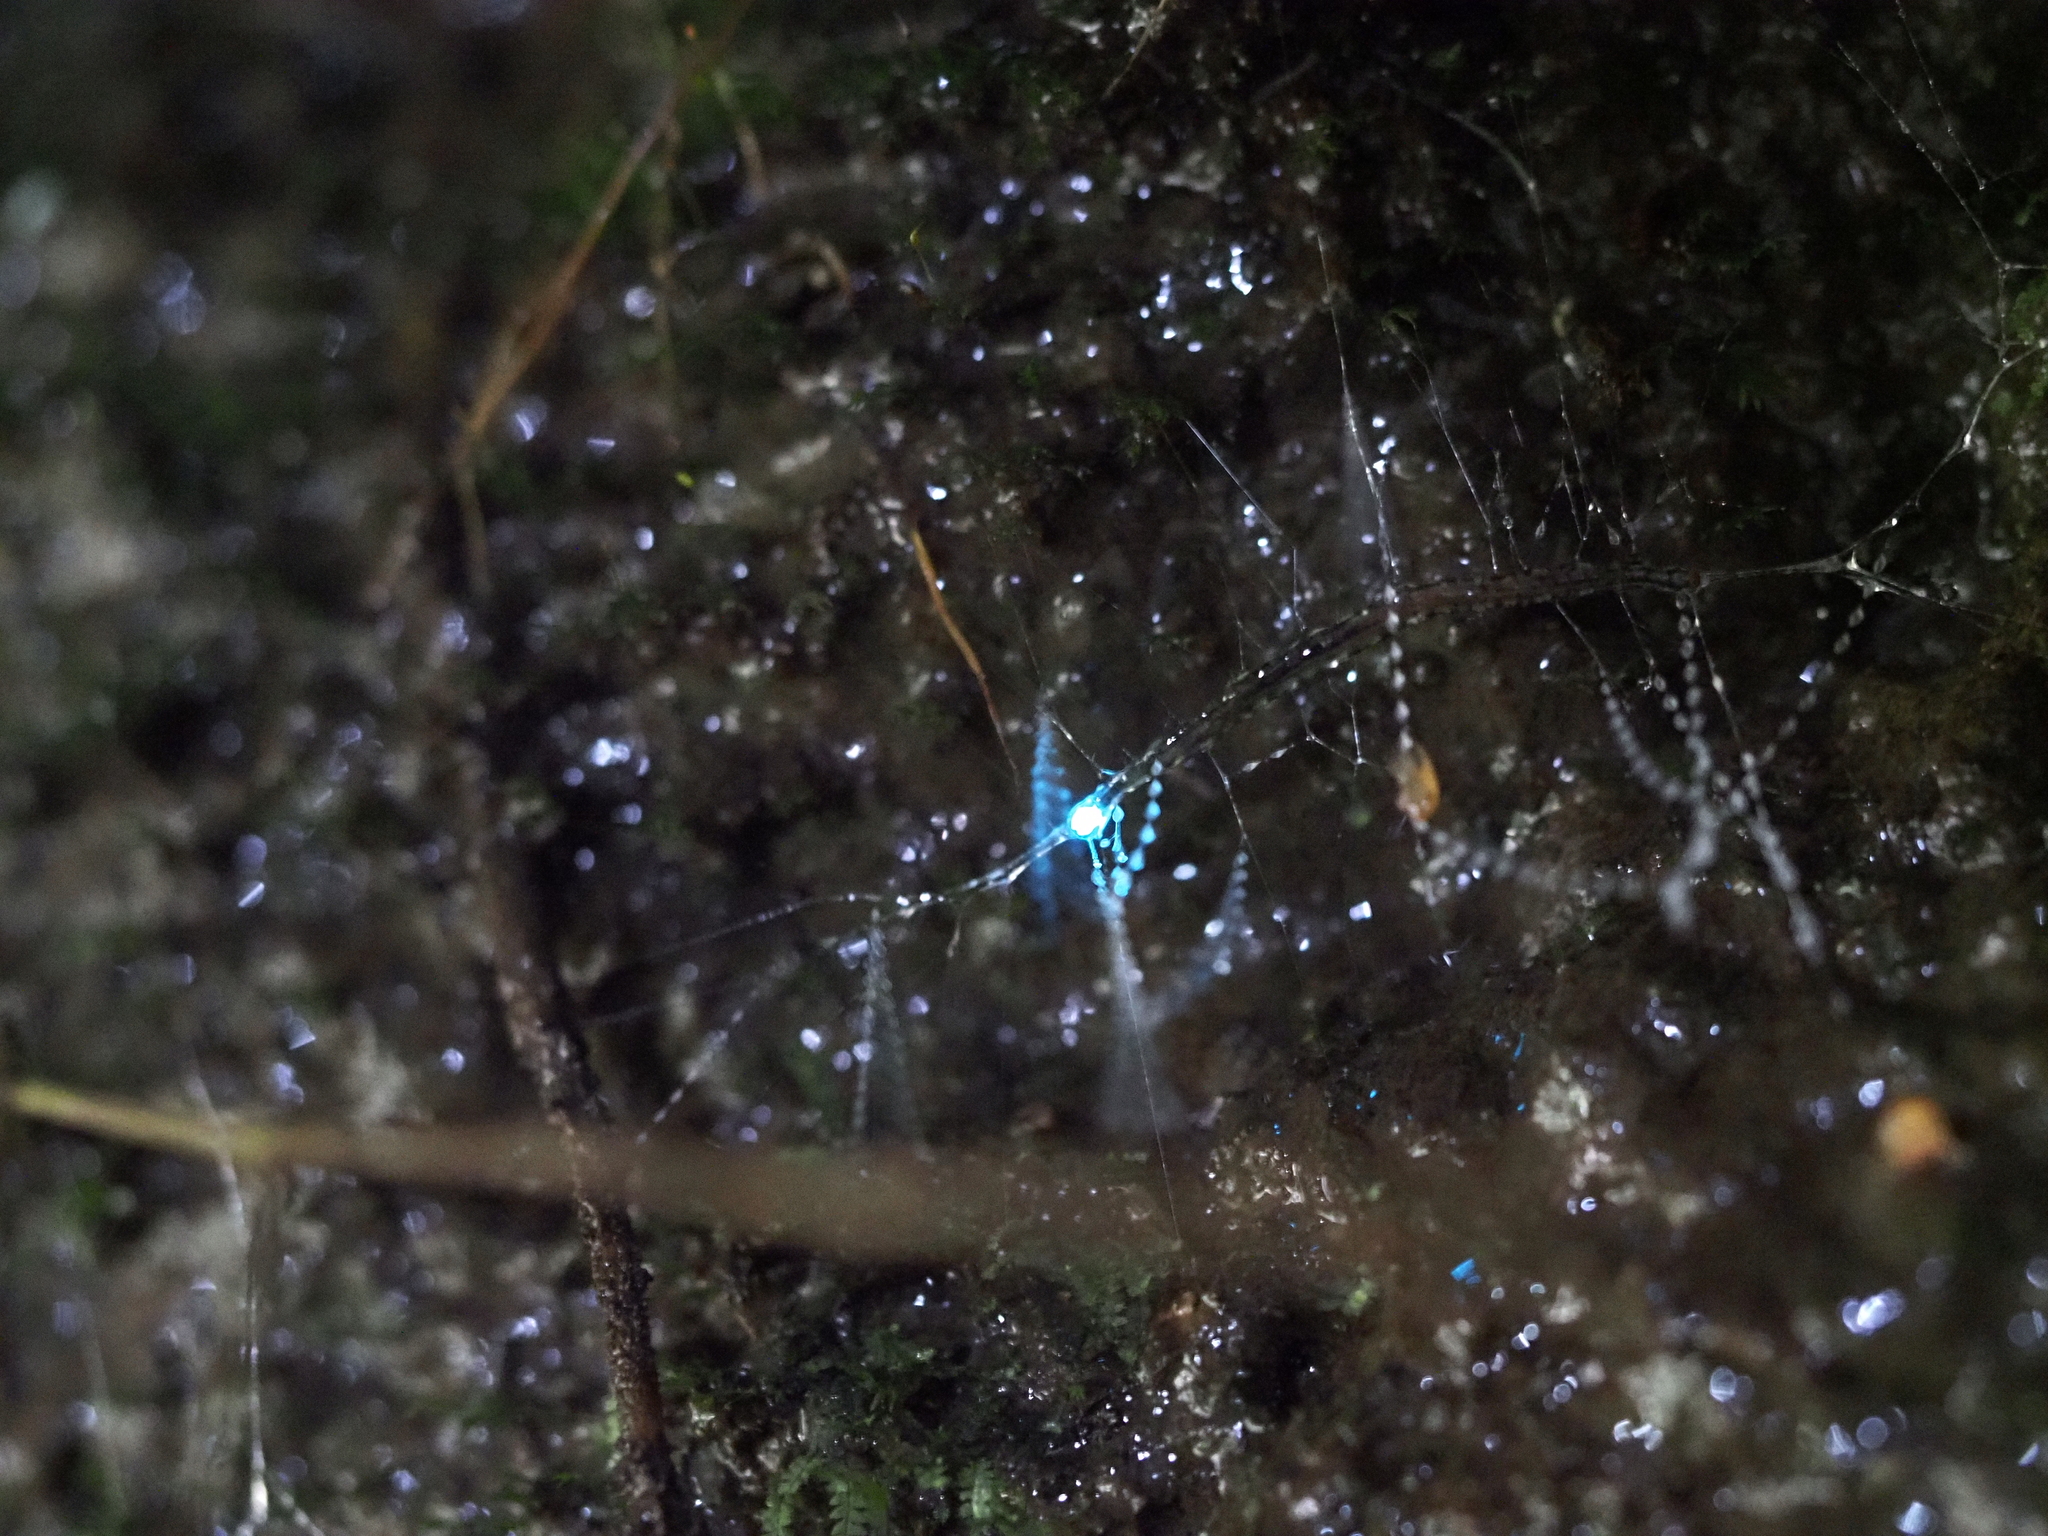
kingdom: Animalia
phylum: Arthropoda
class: Insecta
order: Diptera
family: Keroplatidae
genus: Arachnocampa
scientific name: Arachnocampa luminosa
